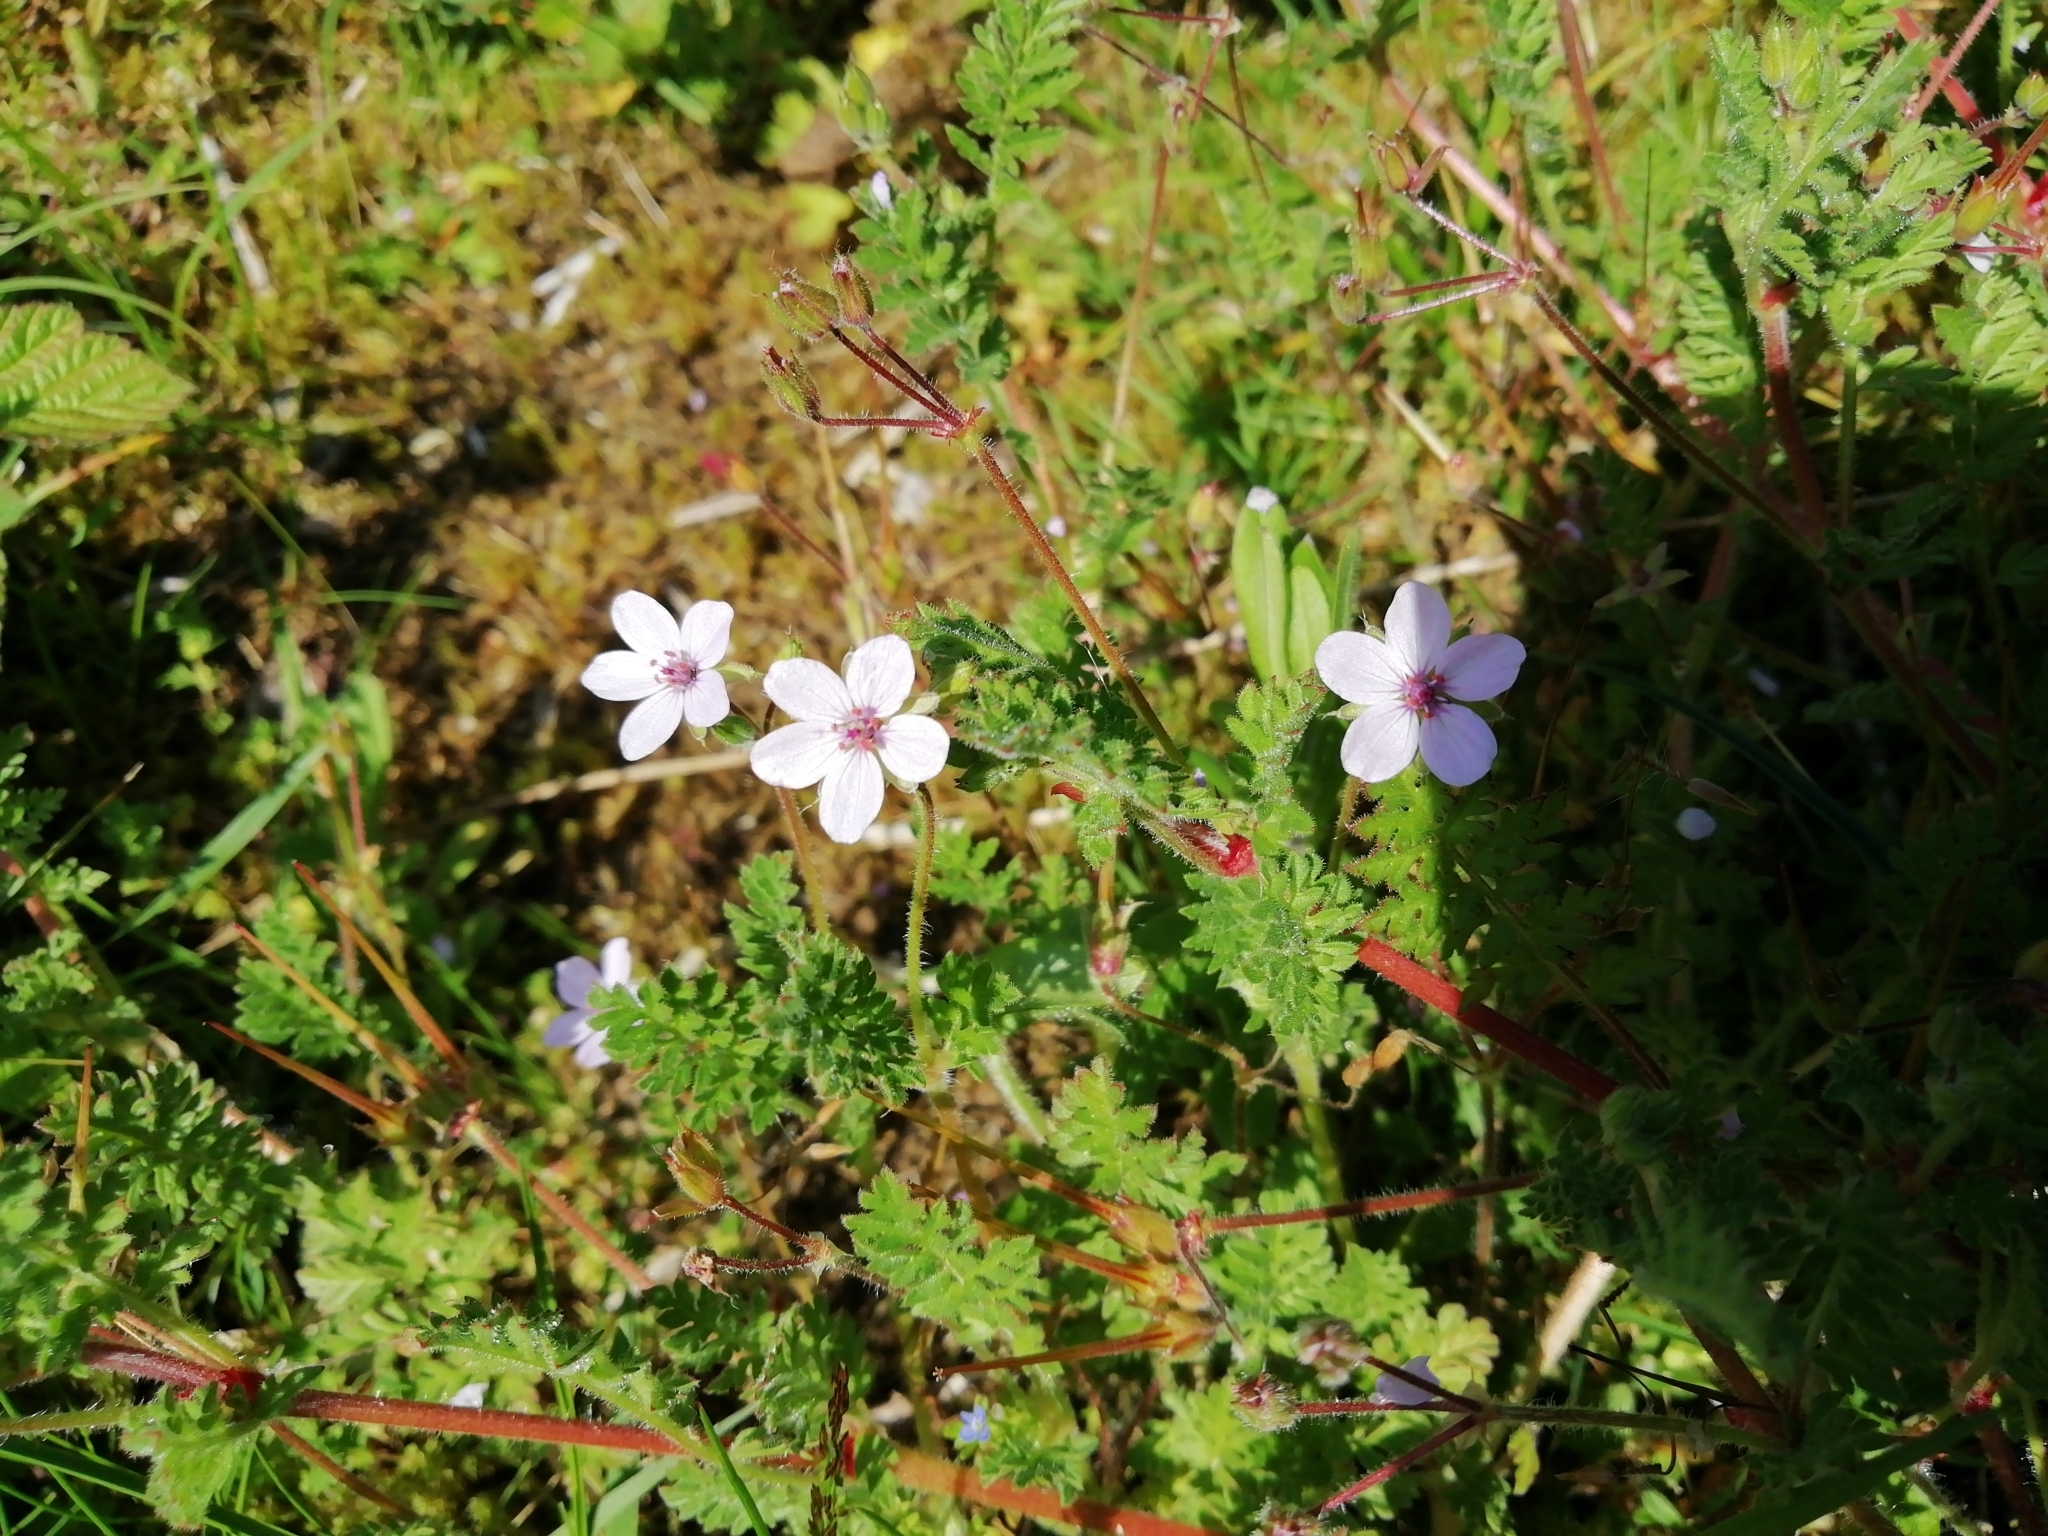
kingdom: Plantae
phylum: Tracheophyta
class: Magnoliopsida
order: Geraniales
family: Geraniaceae
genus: Erodium
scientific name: Erodium cicutarium
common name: Common stork's-bill
